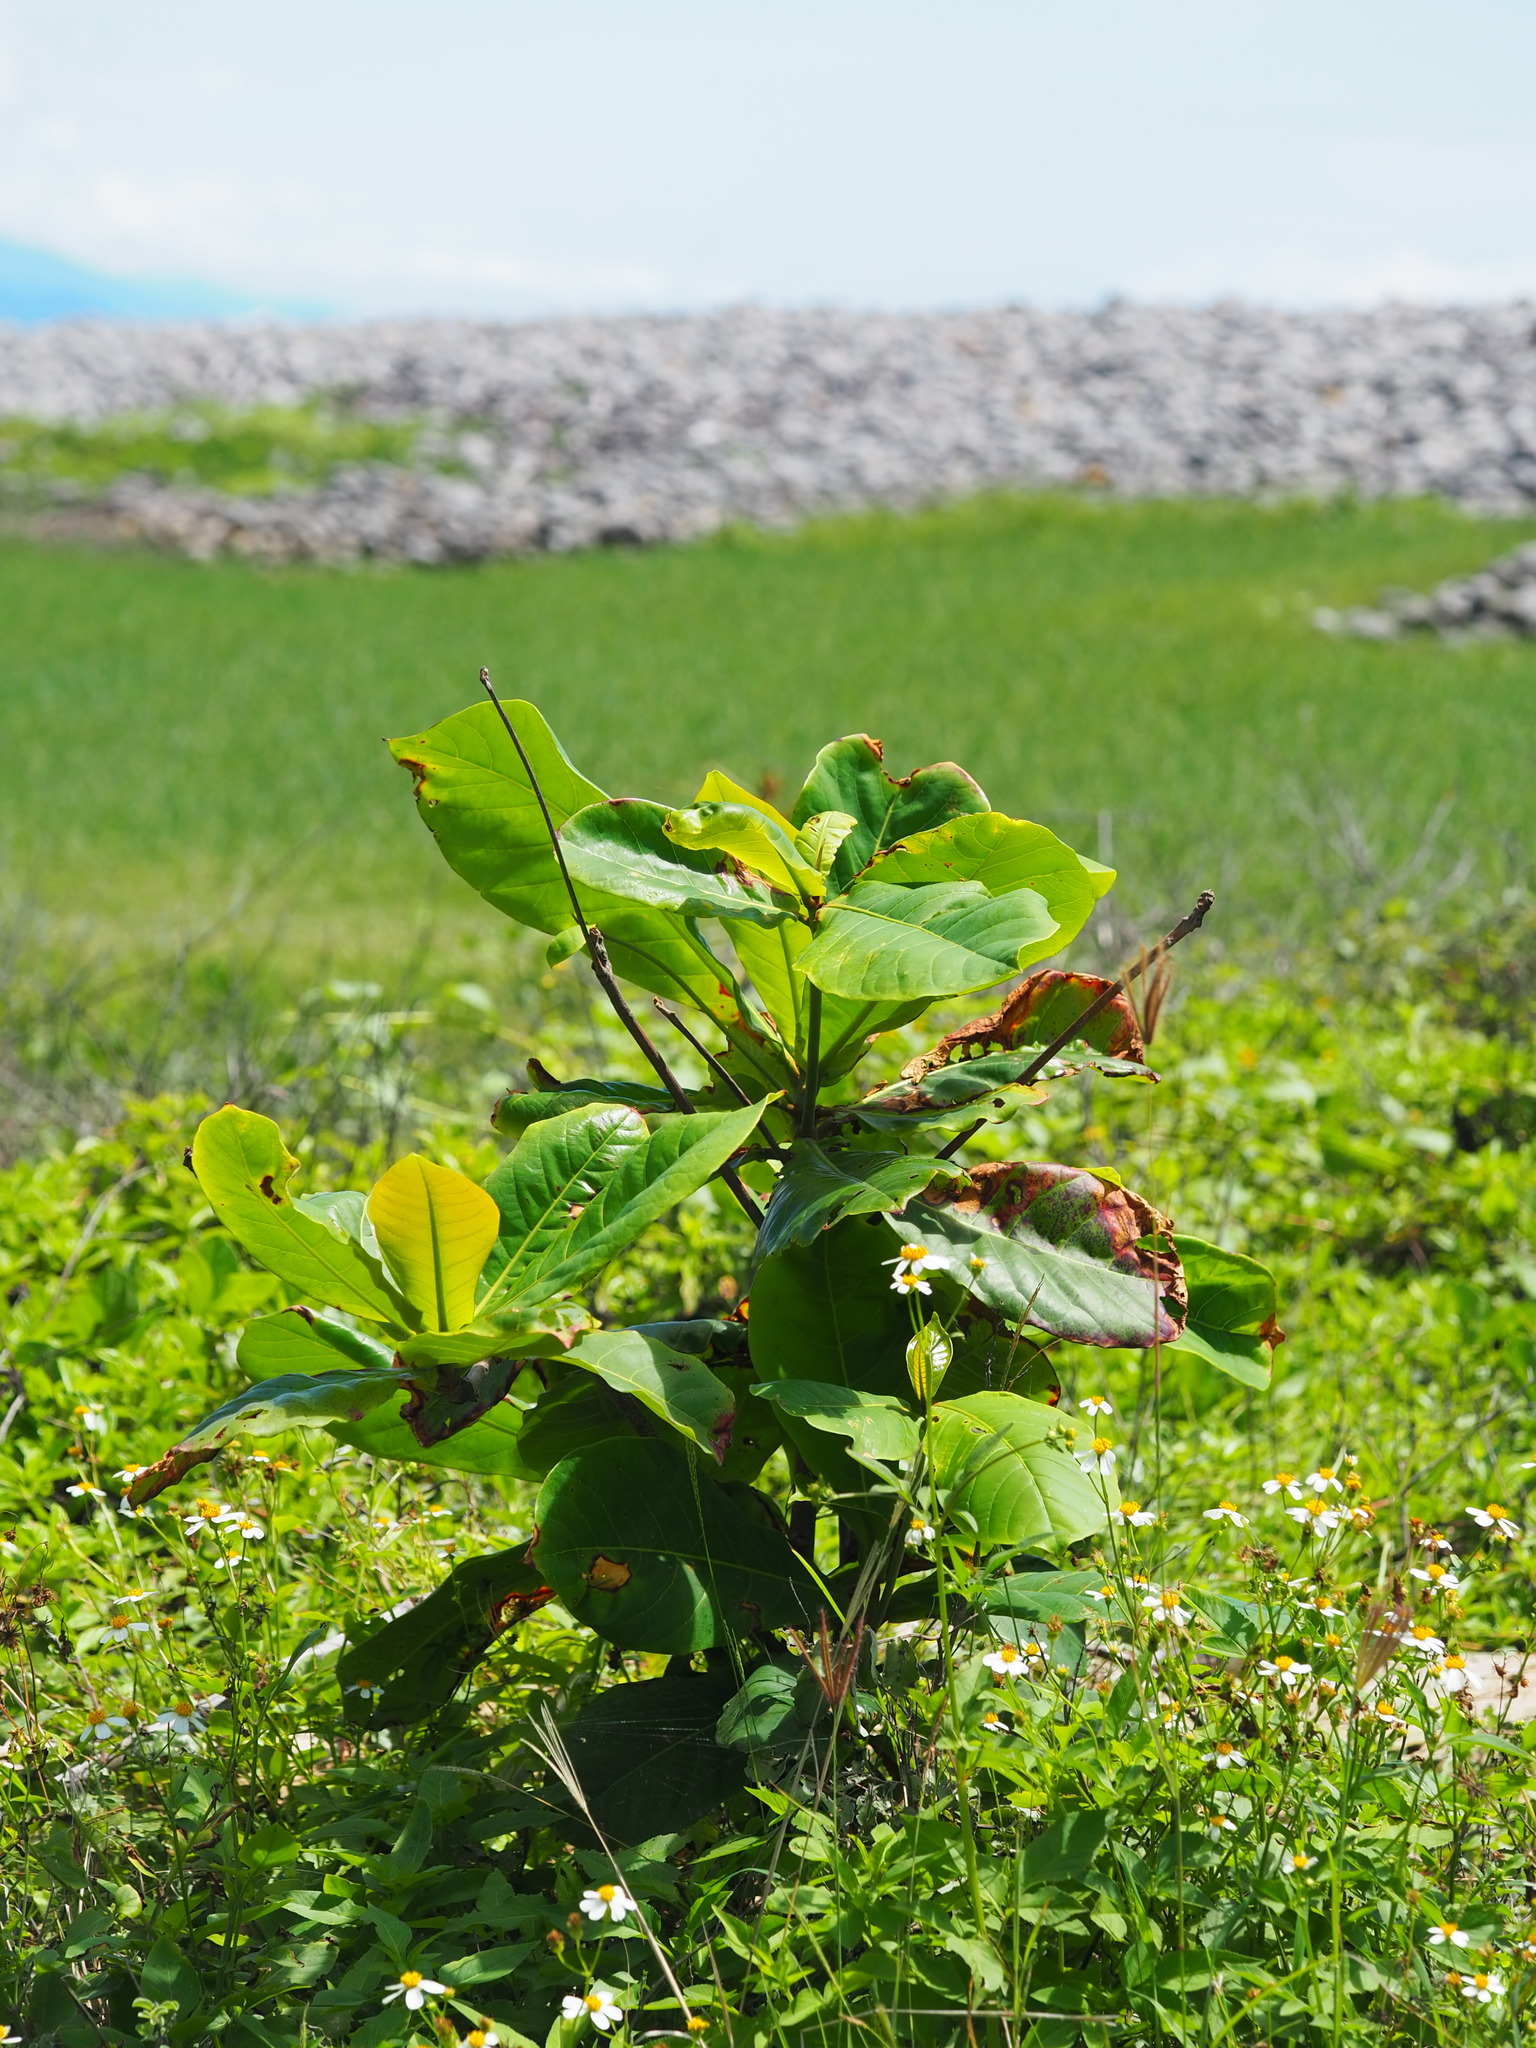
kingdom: Plantae
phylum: Tracheophyta
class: Magnoliopsida
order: Myrtales
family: Combretaceae
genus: Terminalia
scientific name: Terminalia catappa
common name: Tropical almond
